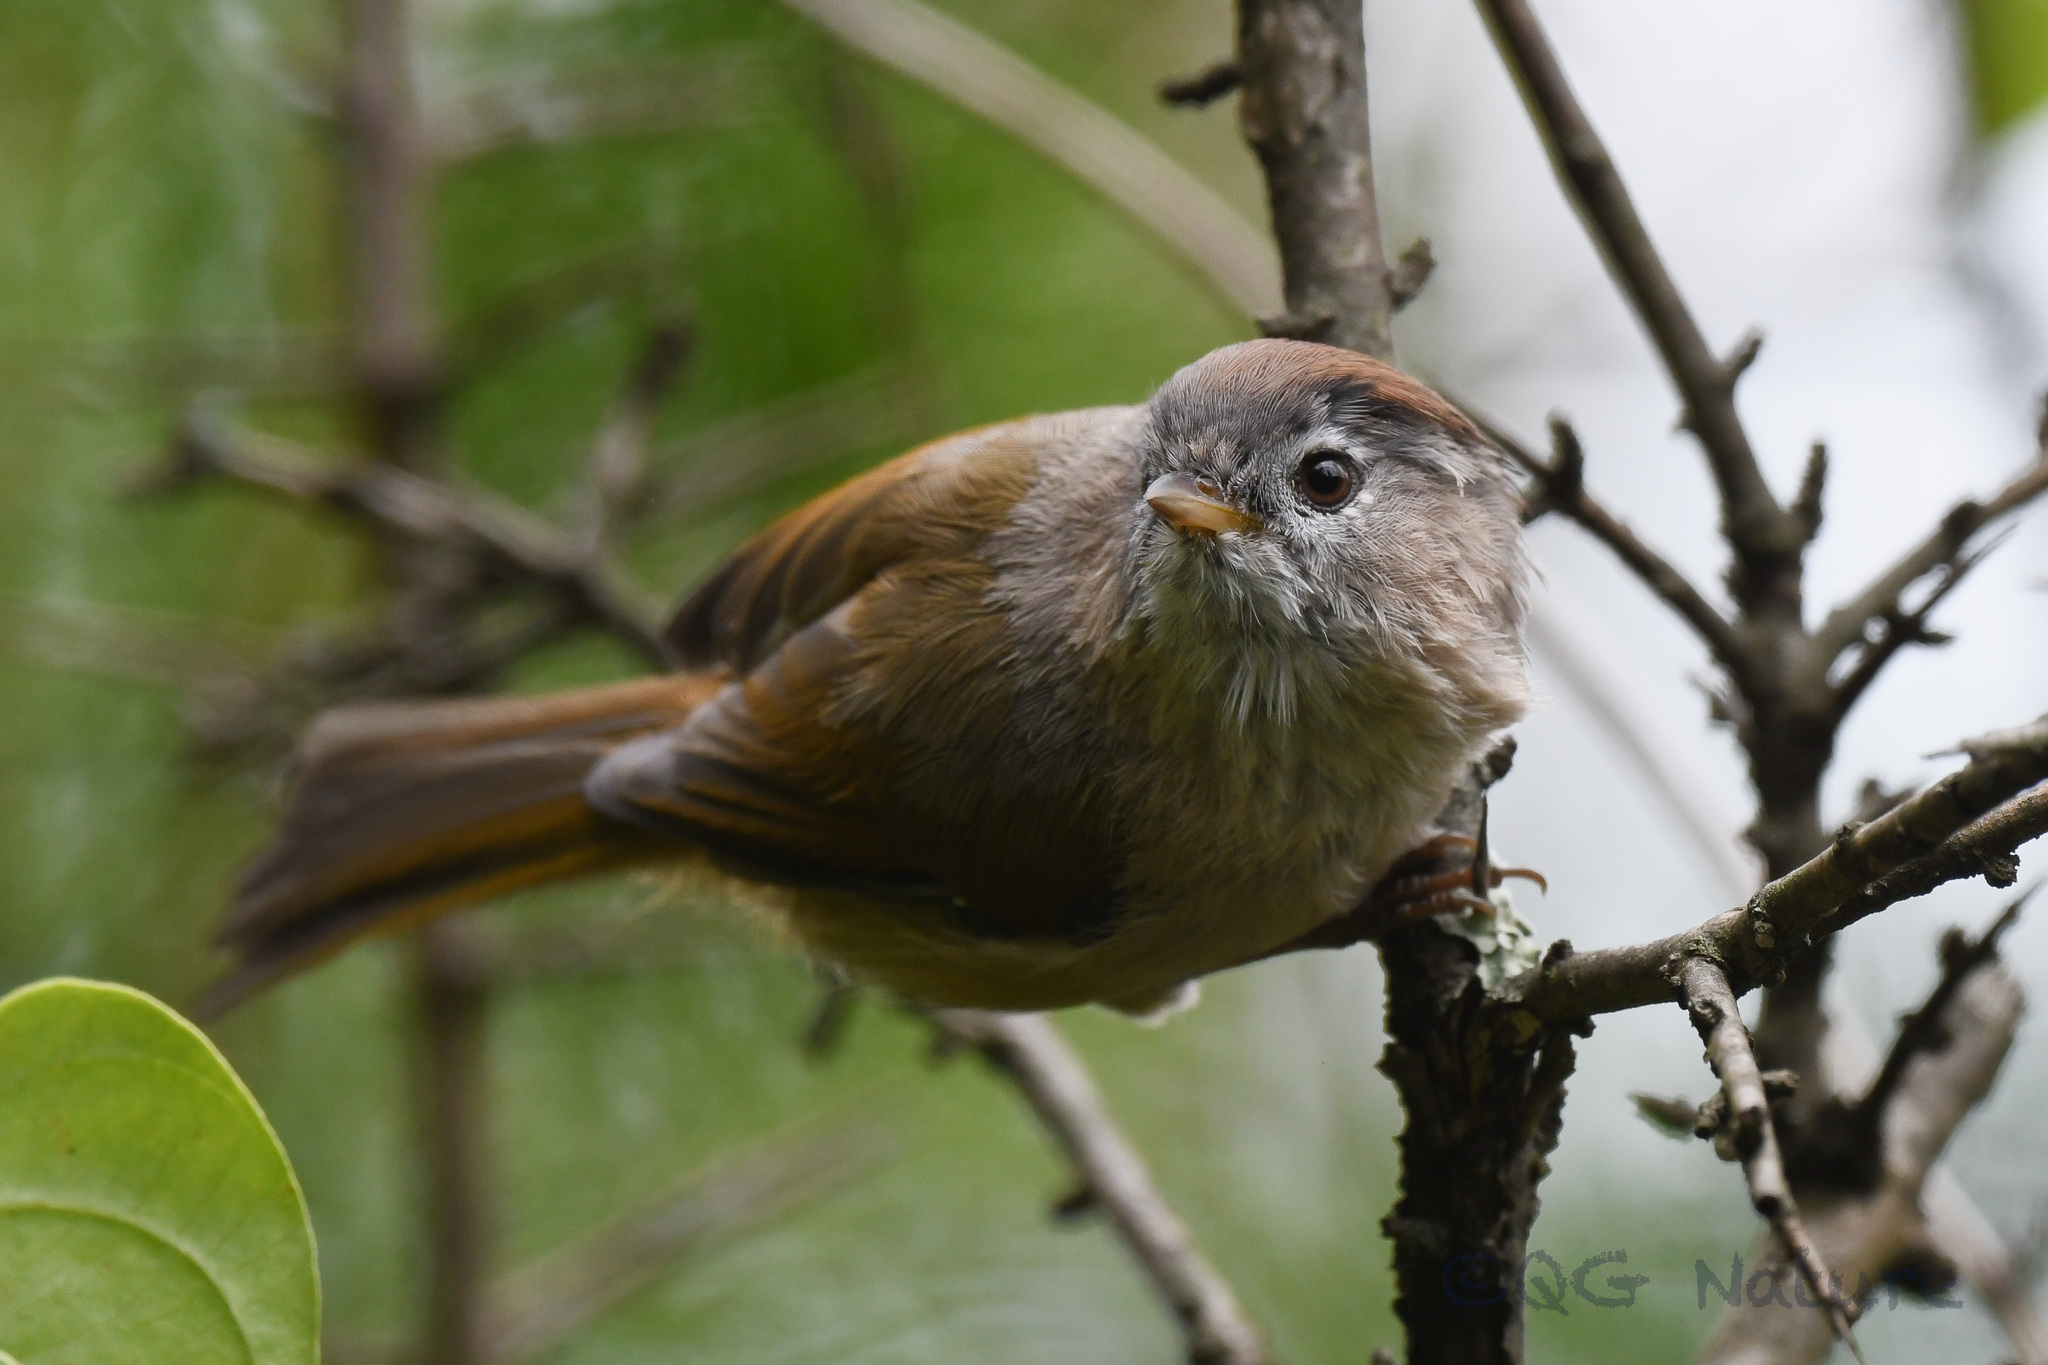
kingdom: Animalia
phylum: Chordata
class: Aves
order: Passeriformes
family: Sylviidae
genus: Fulvetta
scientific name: Fulvetta ruficapilla
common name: Spectacled fulvetta
